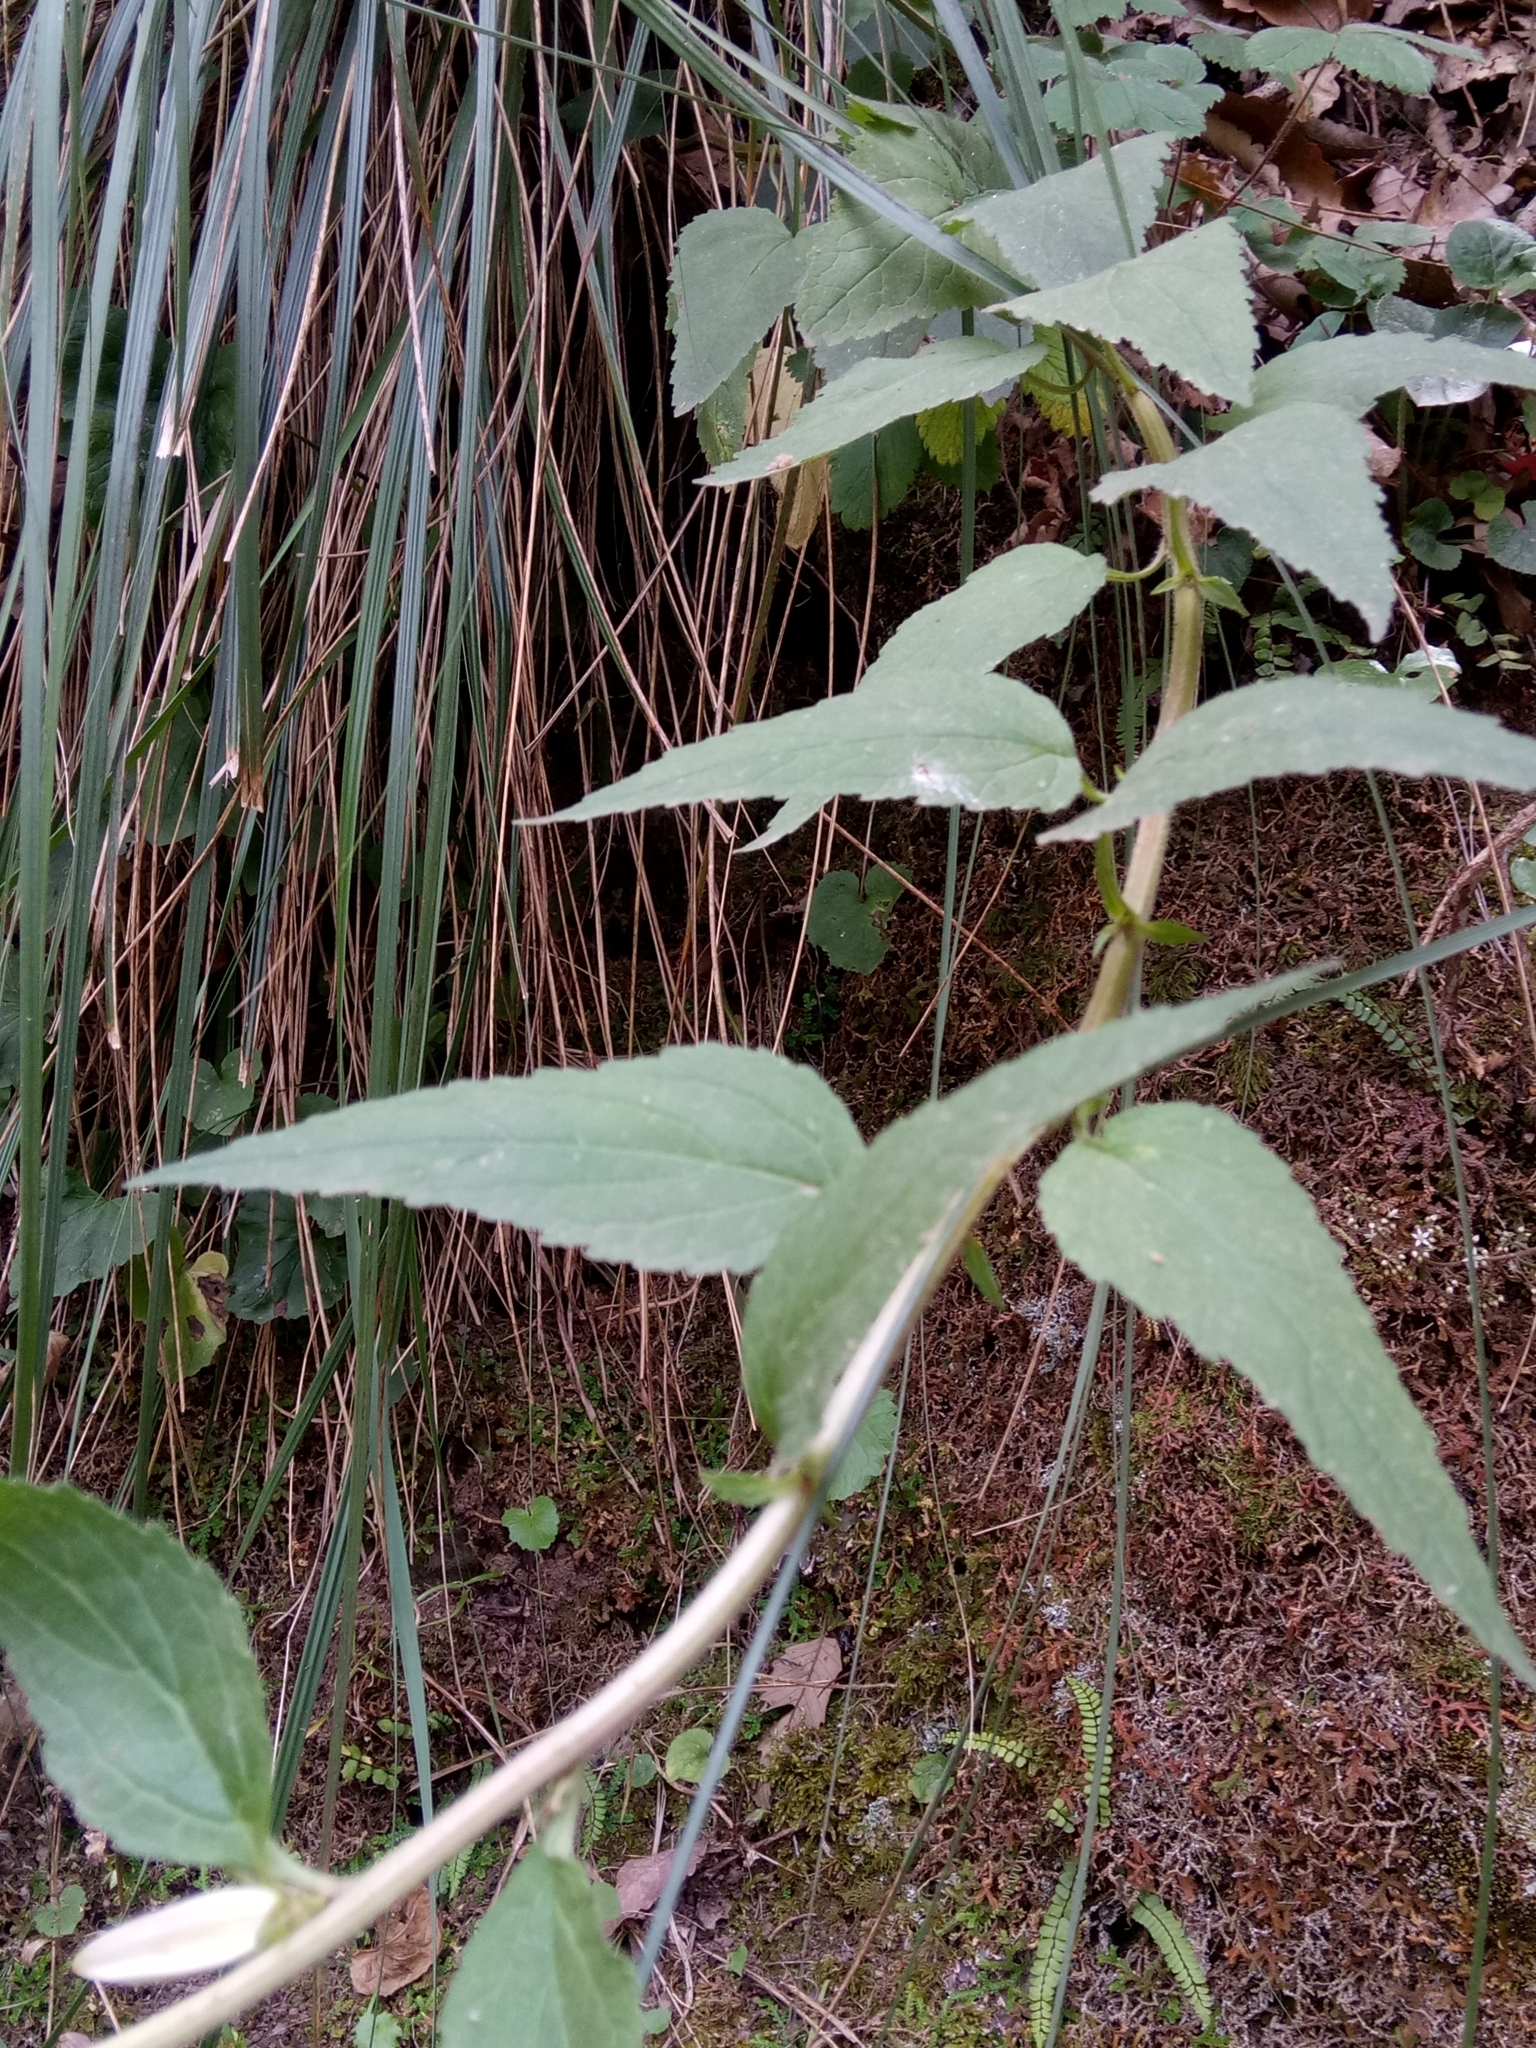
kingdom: Plantae
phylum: Tracheophyta
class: Magnoliopsida
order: Asterales
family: Campanulaceae
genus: Campanula
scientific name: Campanula trachelium
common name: Nettle-leaved bellflower
